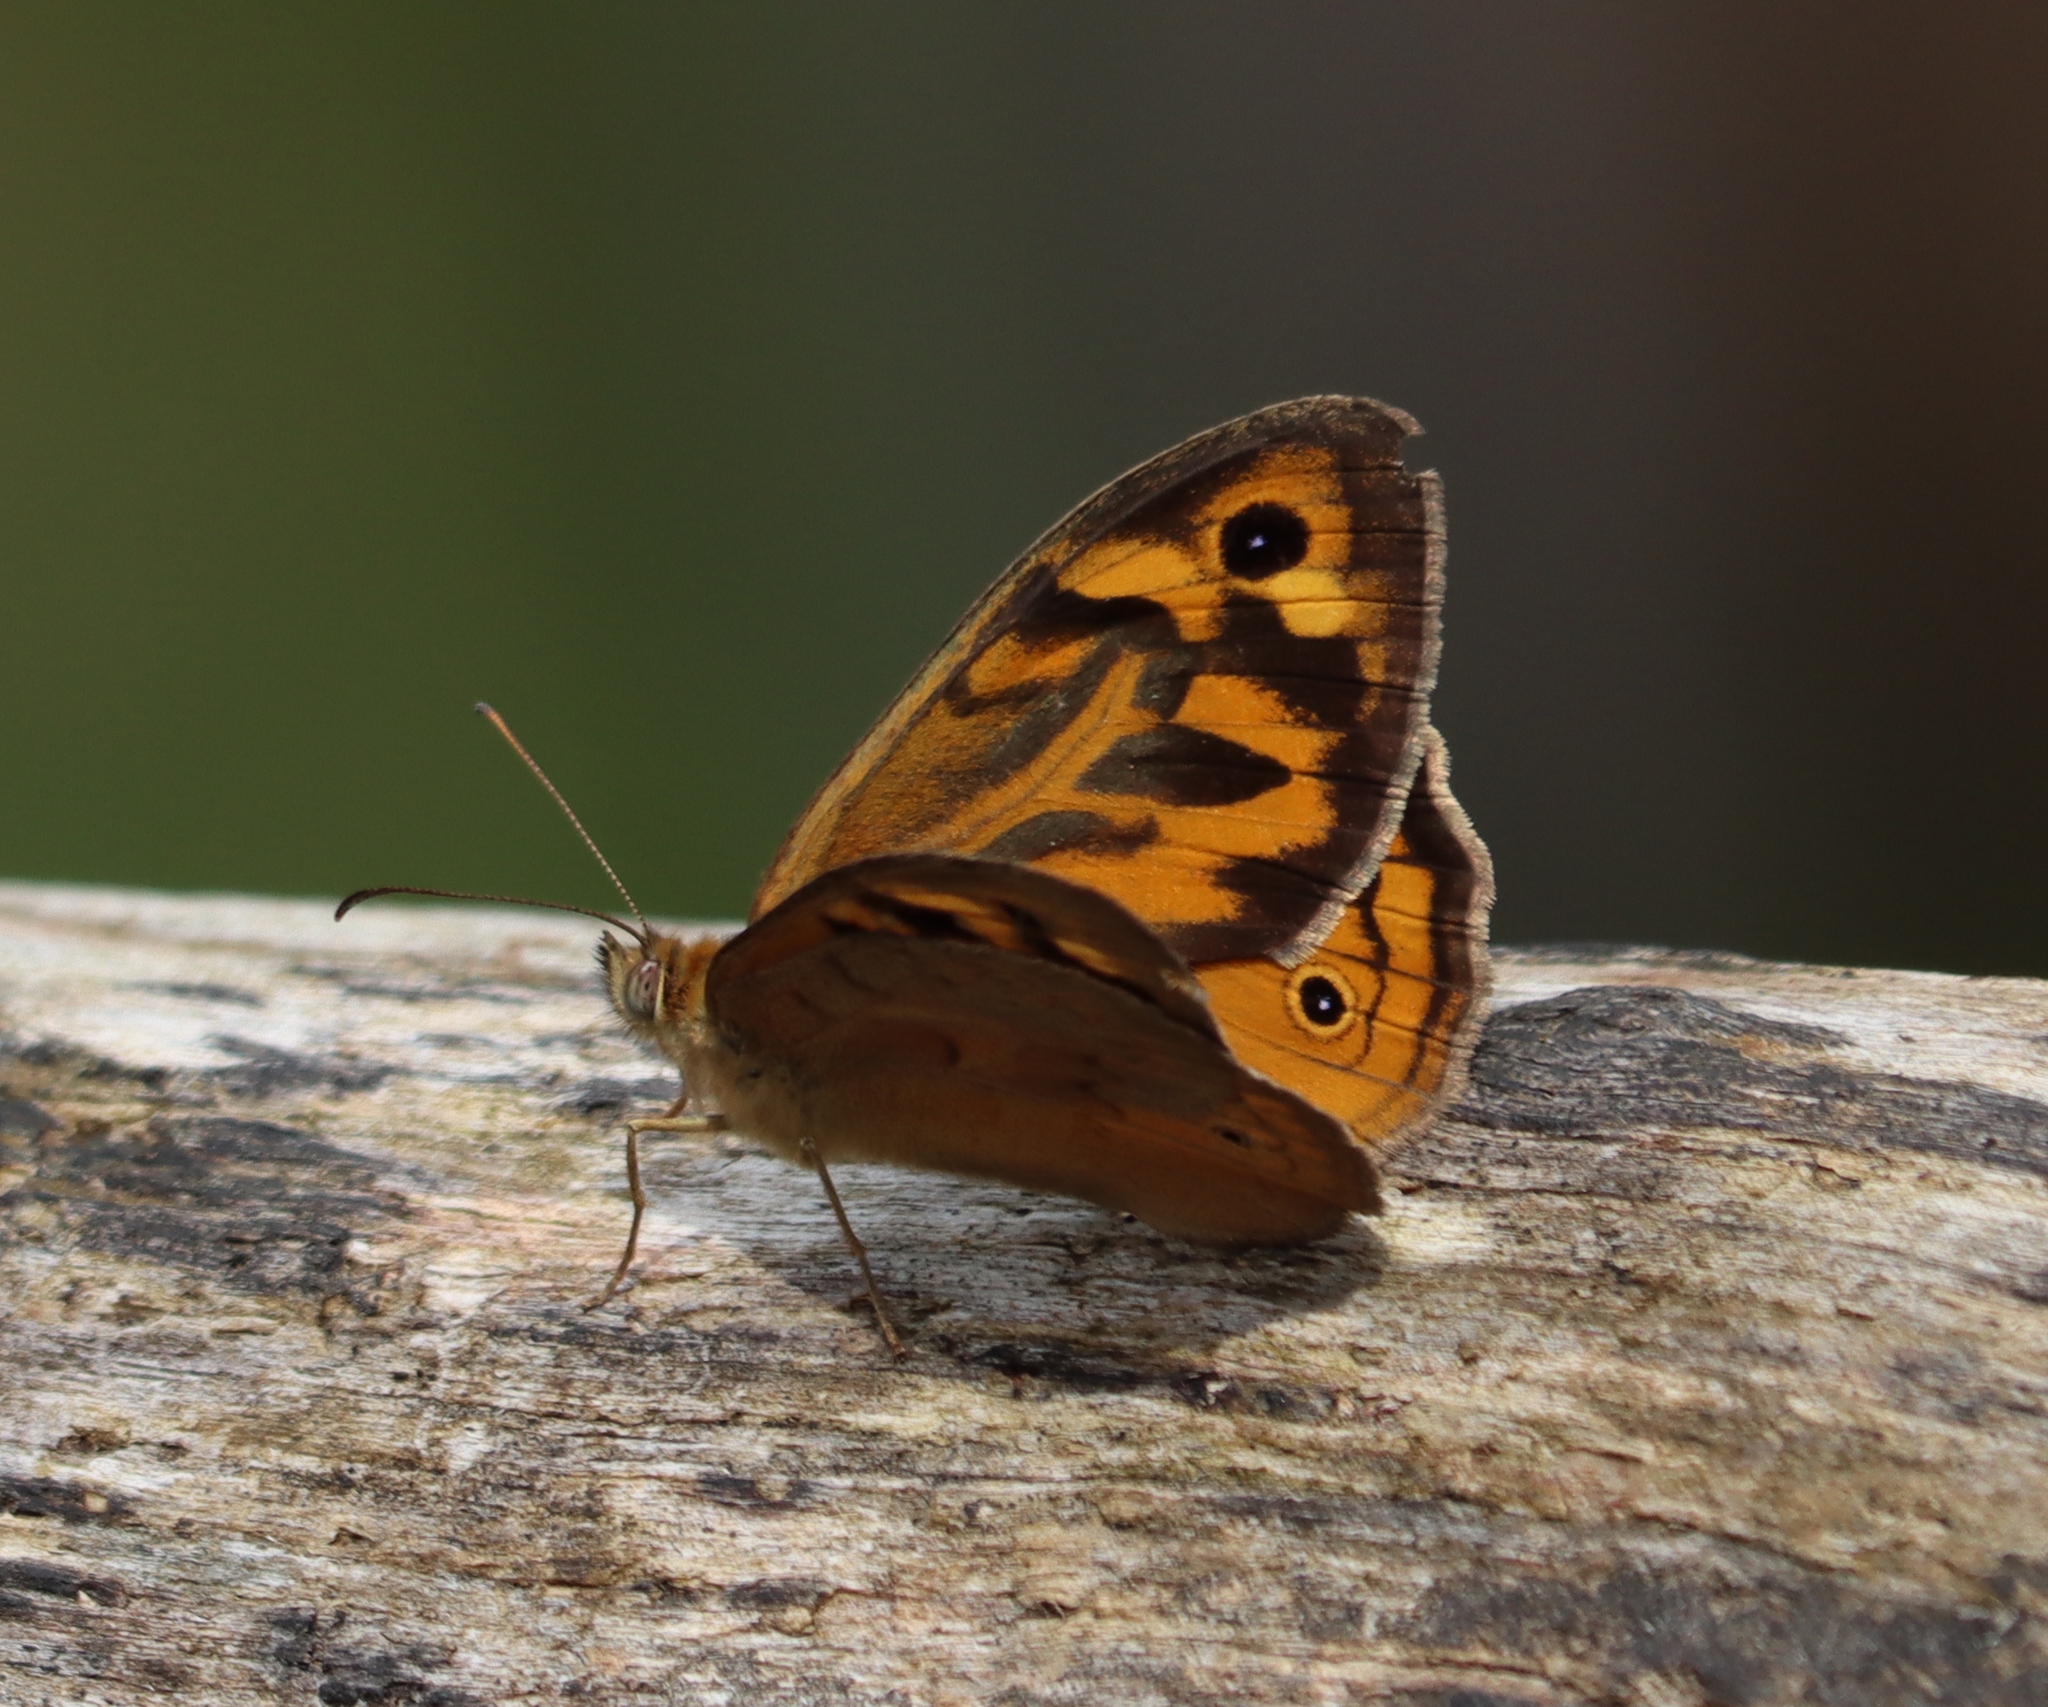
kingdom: Animalia
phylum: Arthropoda
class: Insecta
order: Lepidoptera
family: Nymphalidae
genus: Heteronympha
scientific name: Heteronympha merope
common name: Common brown
